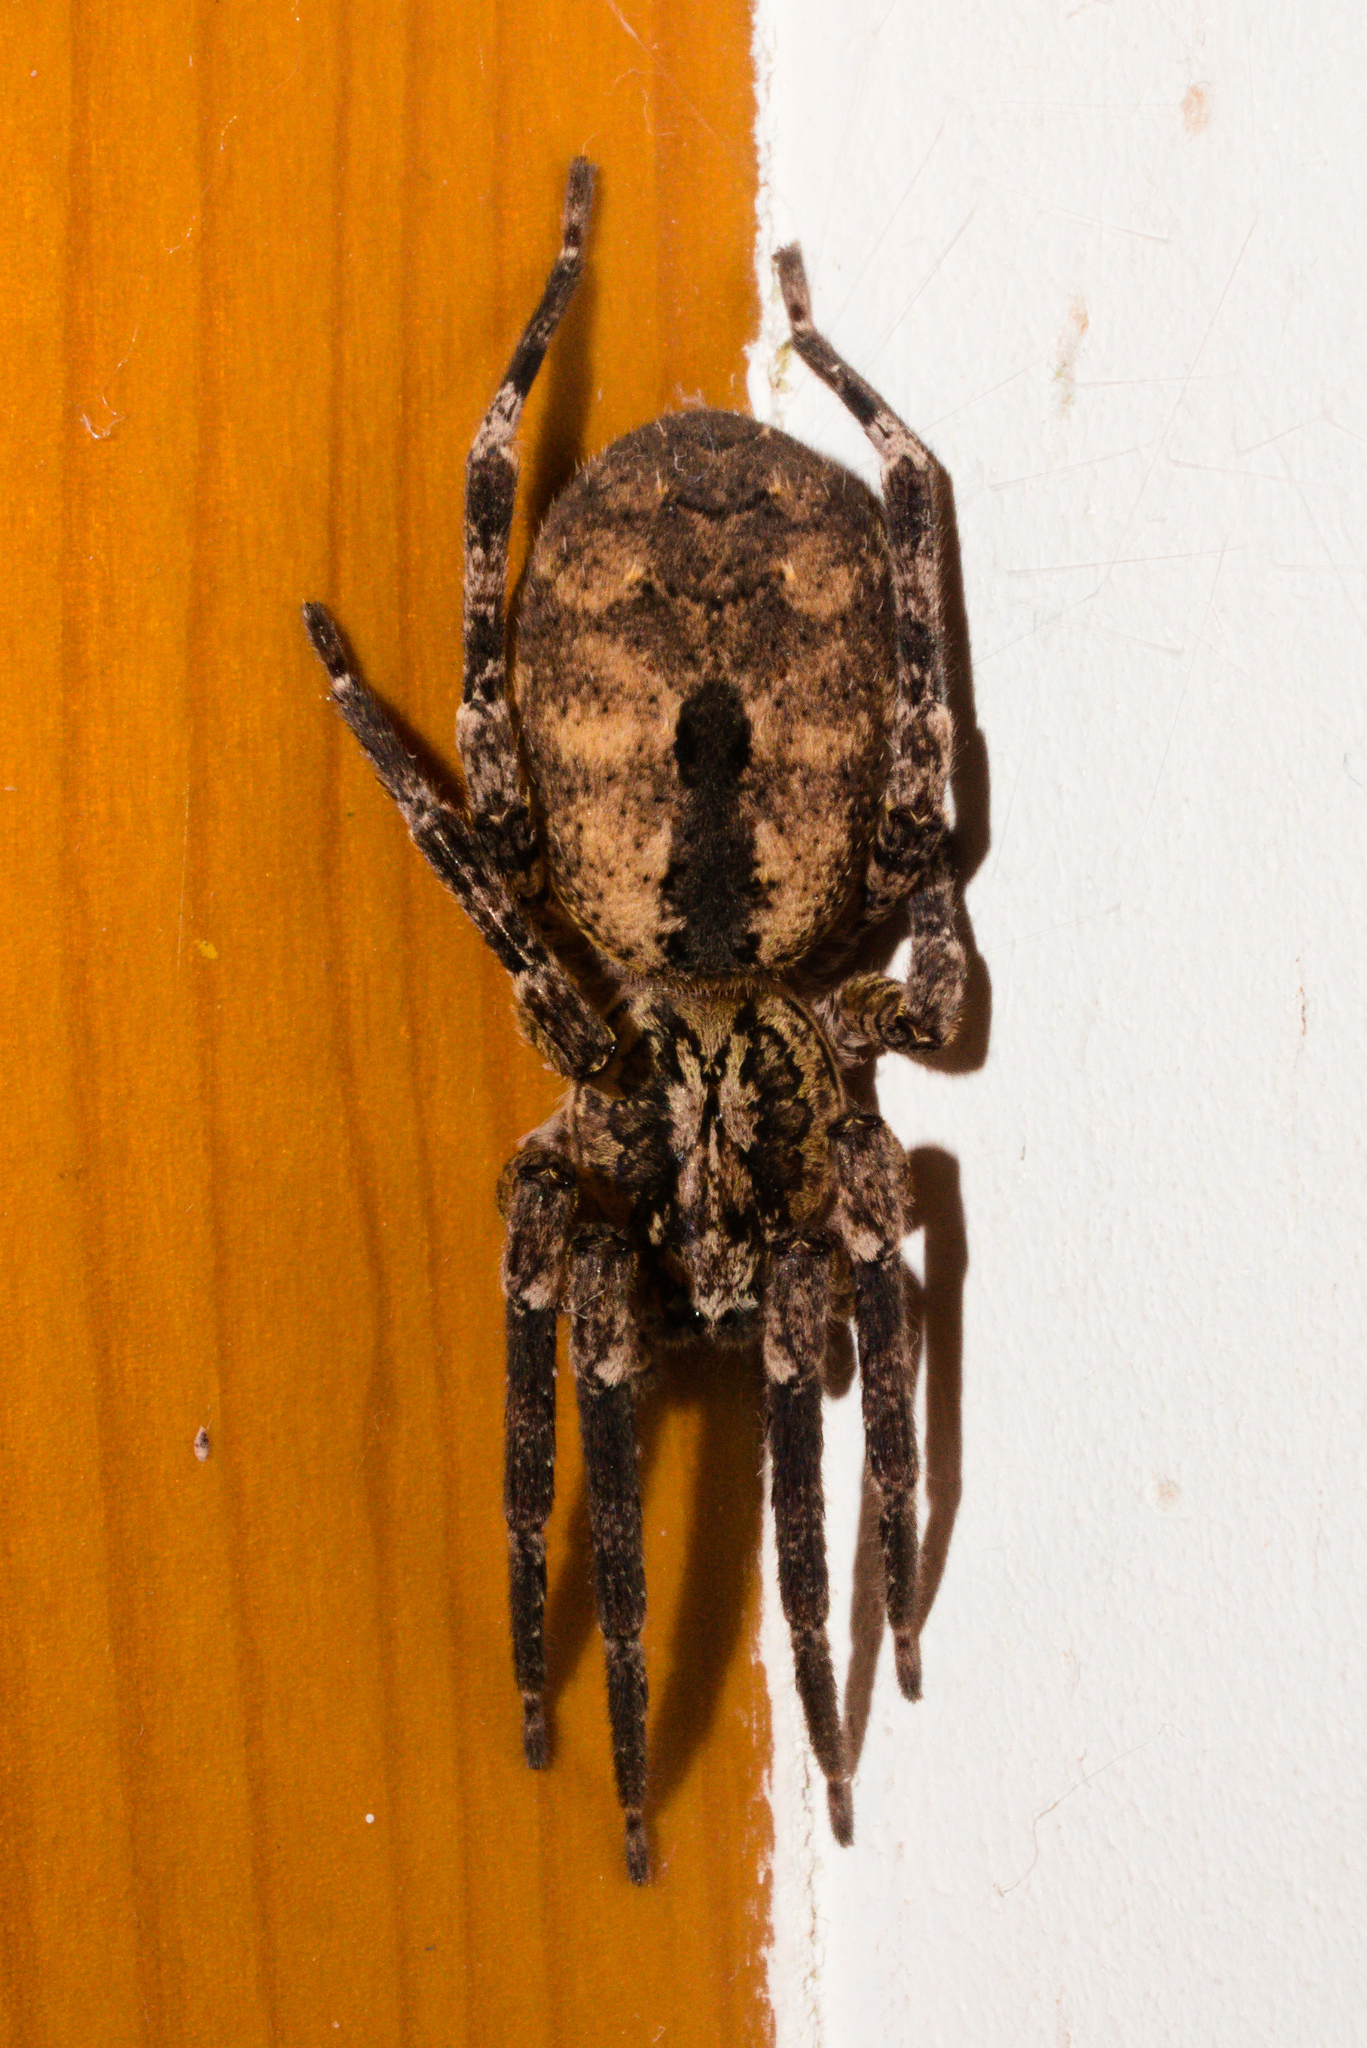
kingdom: Animalia
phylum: Arthropoda
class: Arachnida
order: Araneae
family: Zoropsidae
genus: Zoropsis
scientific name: Zoropsis spinimana
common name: Zoropsid spider
